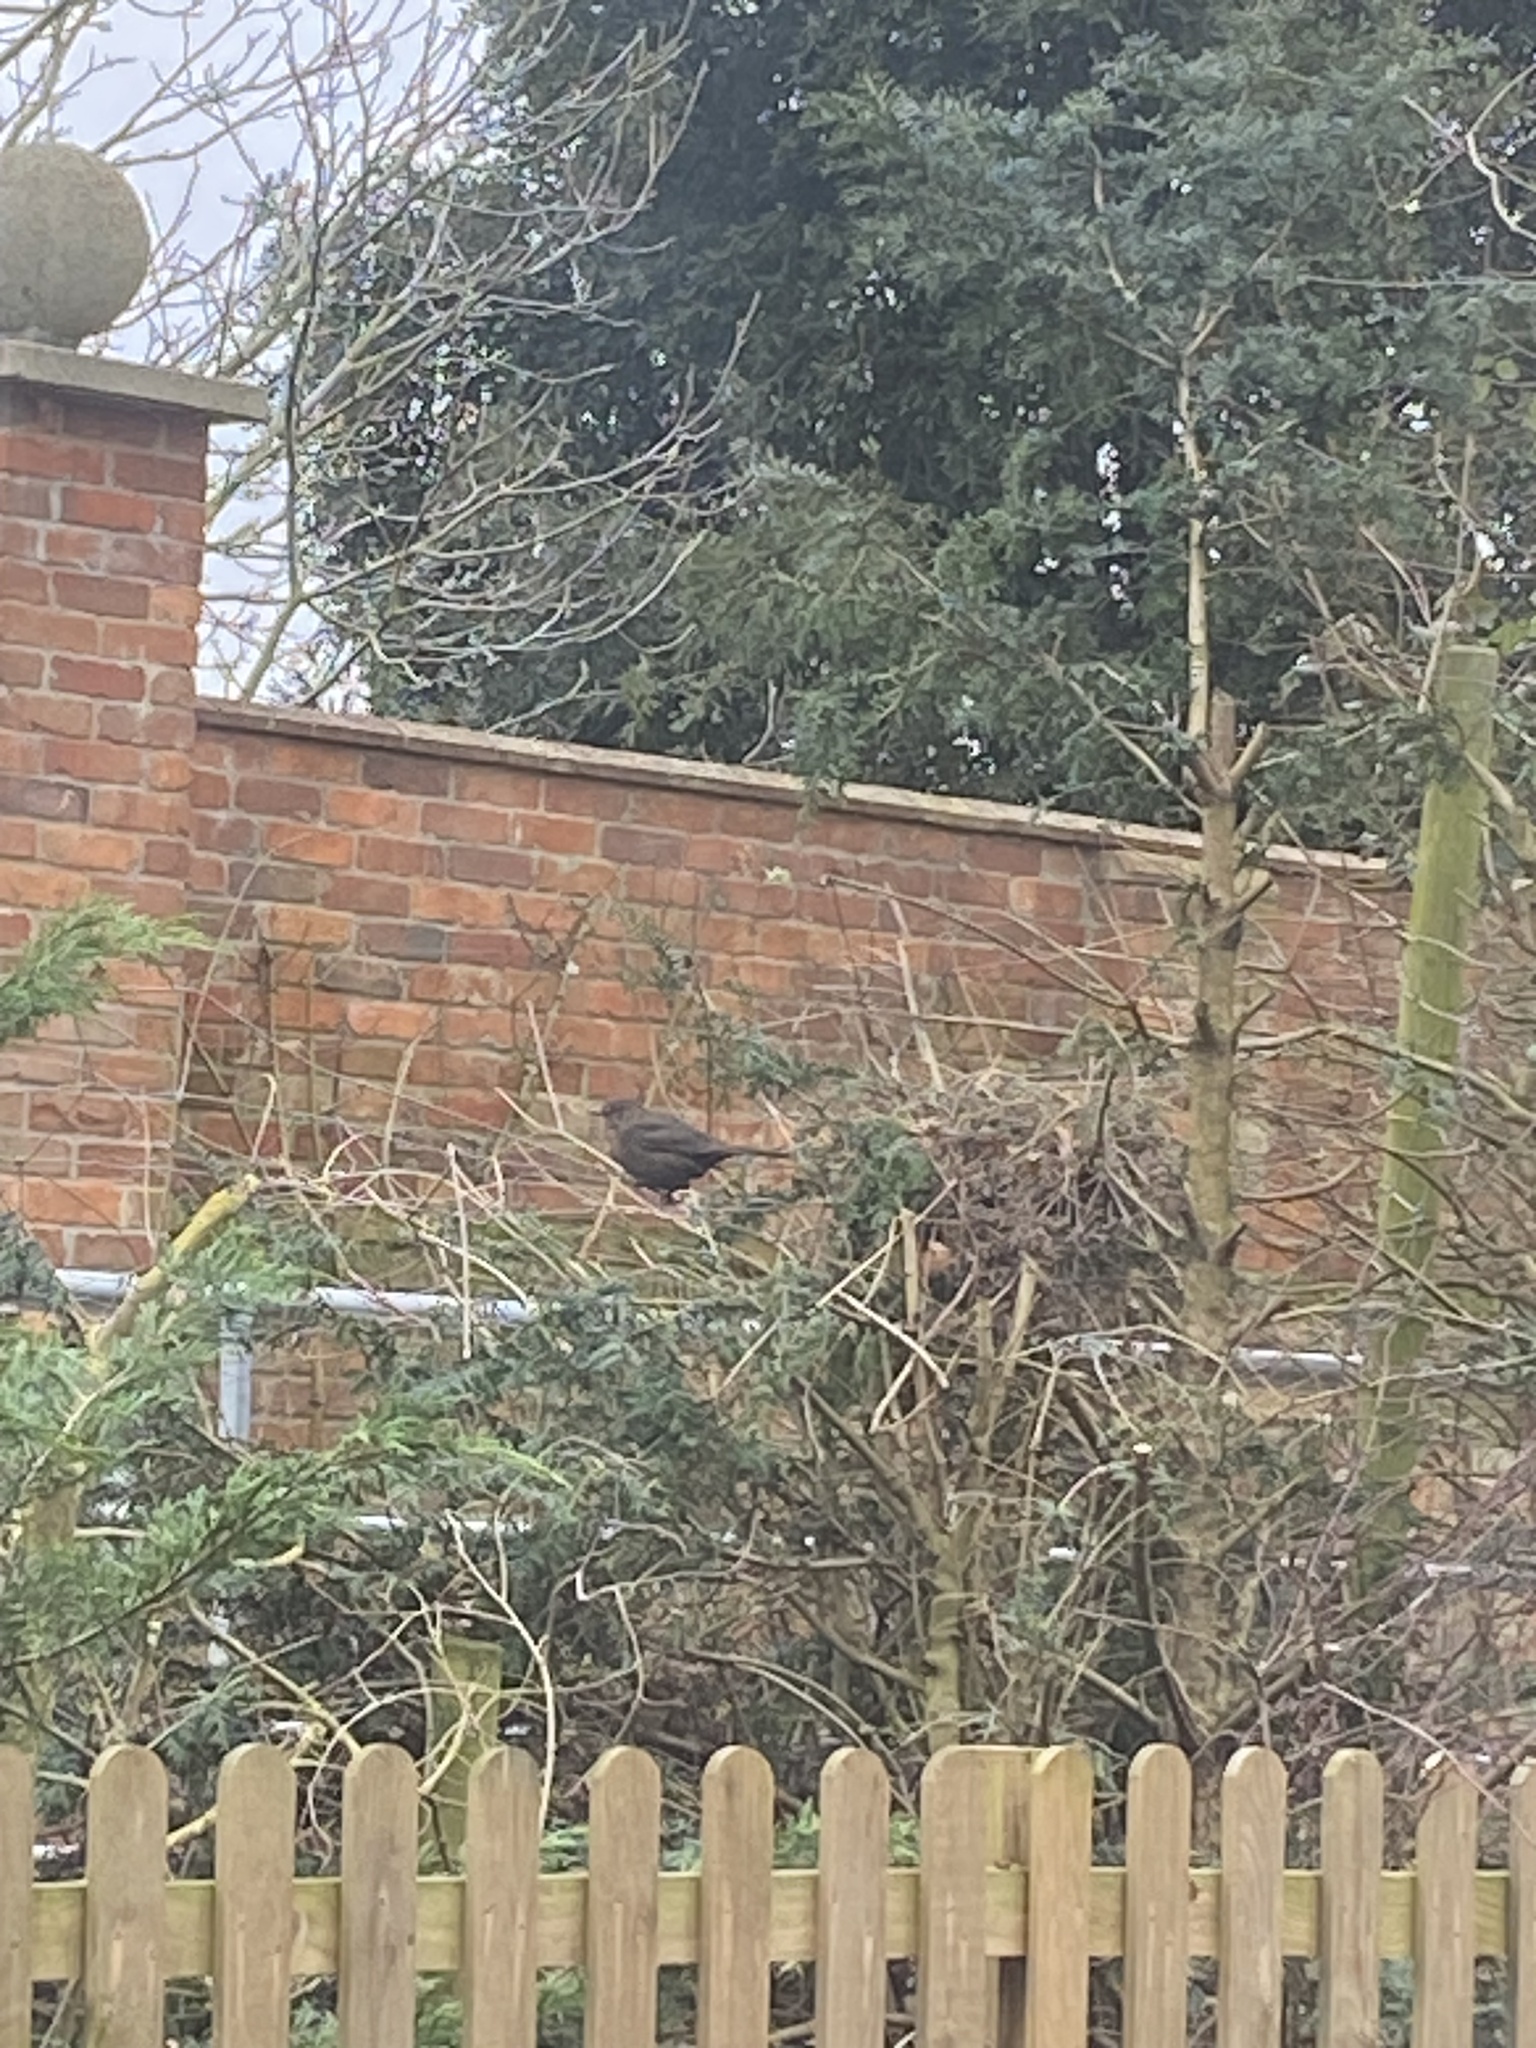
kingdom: Animalia
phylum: Chordata
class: Aves
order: Passeriformes
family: Turdidae
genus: Turdus
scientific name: Turdus merula
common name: Common blackbird
